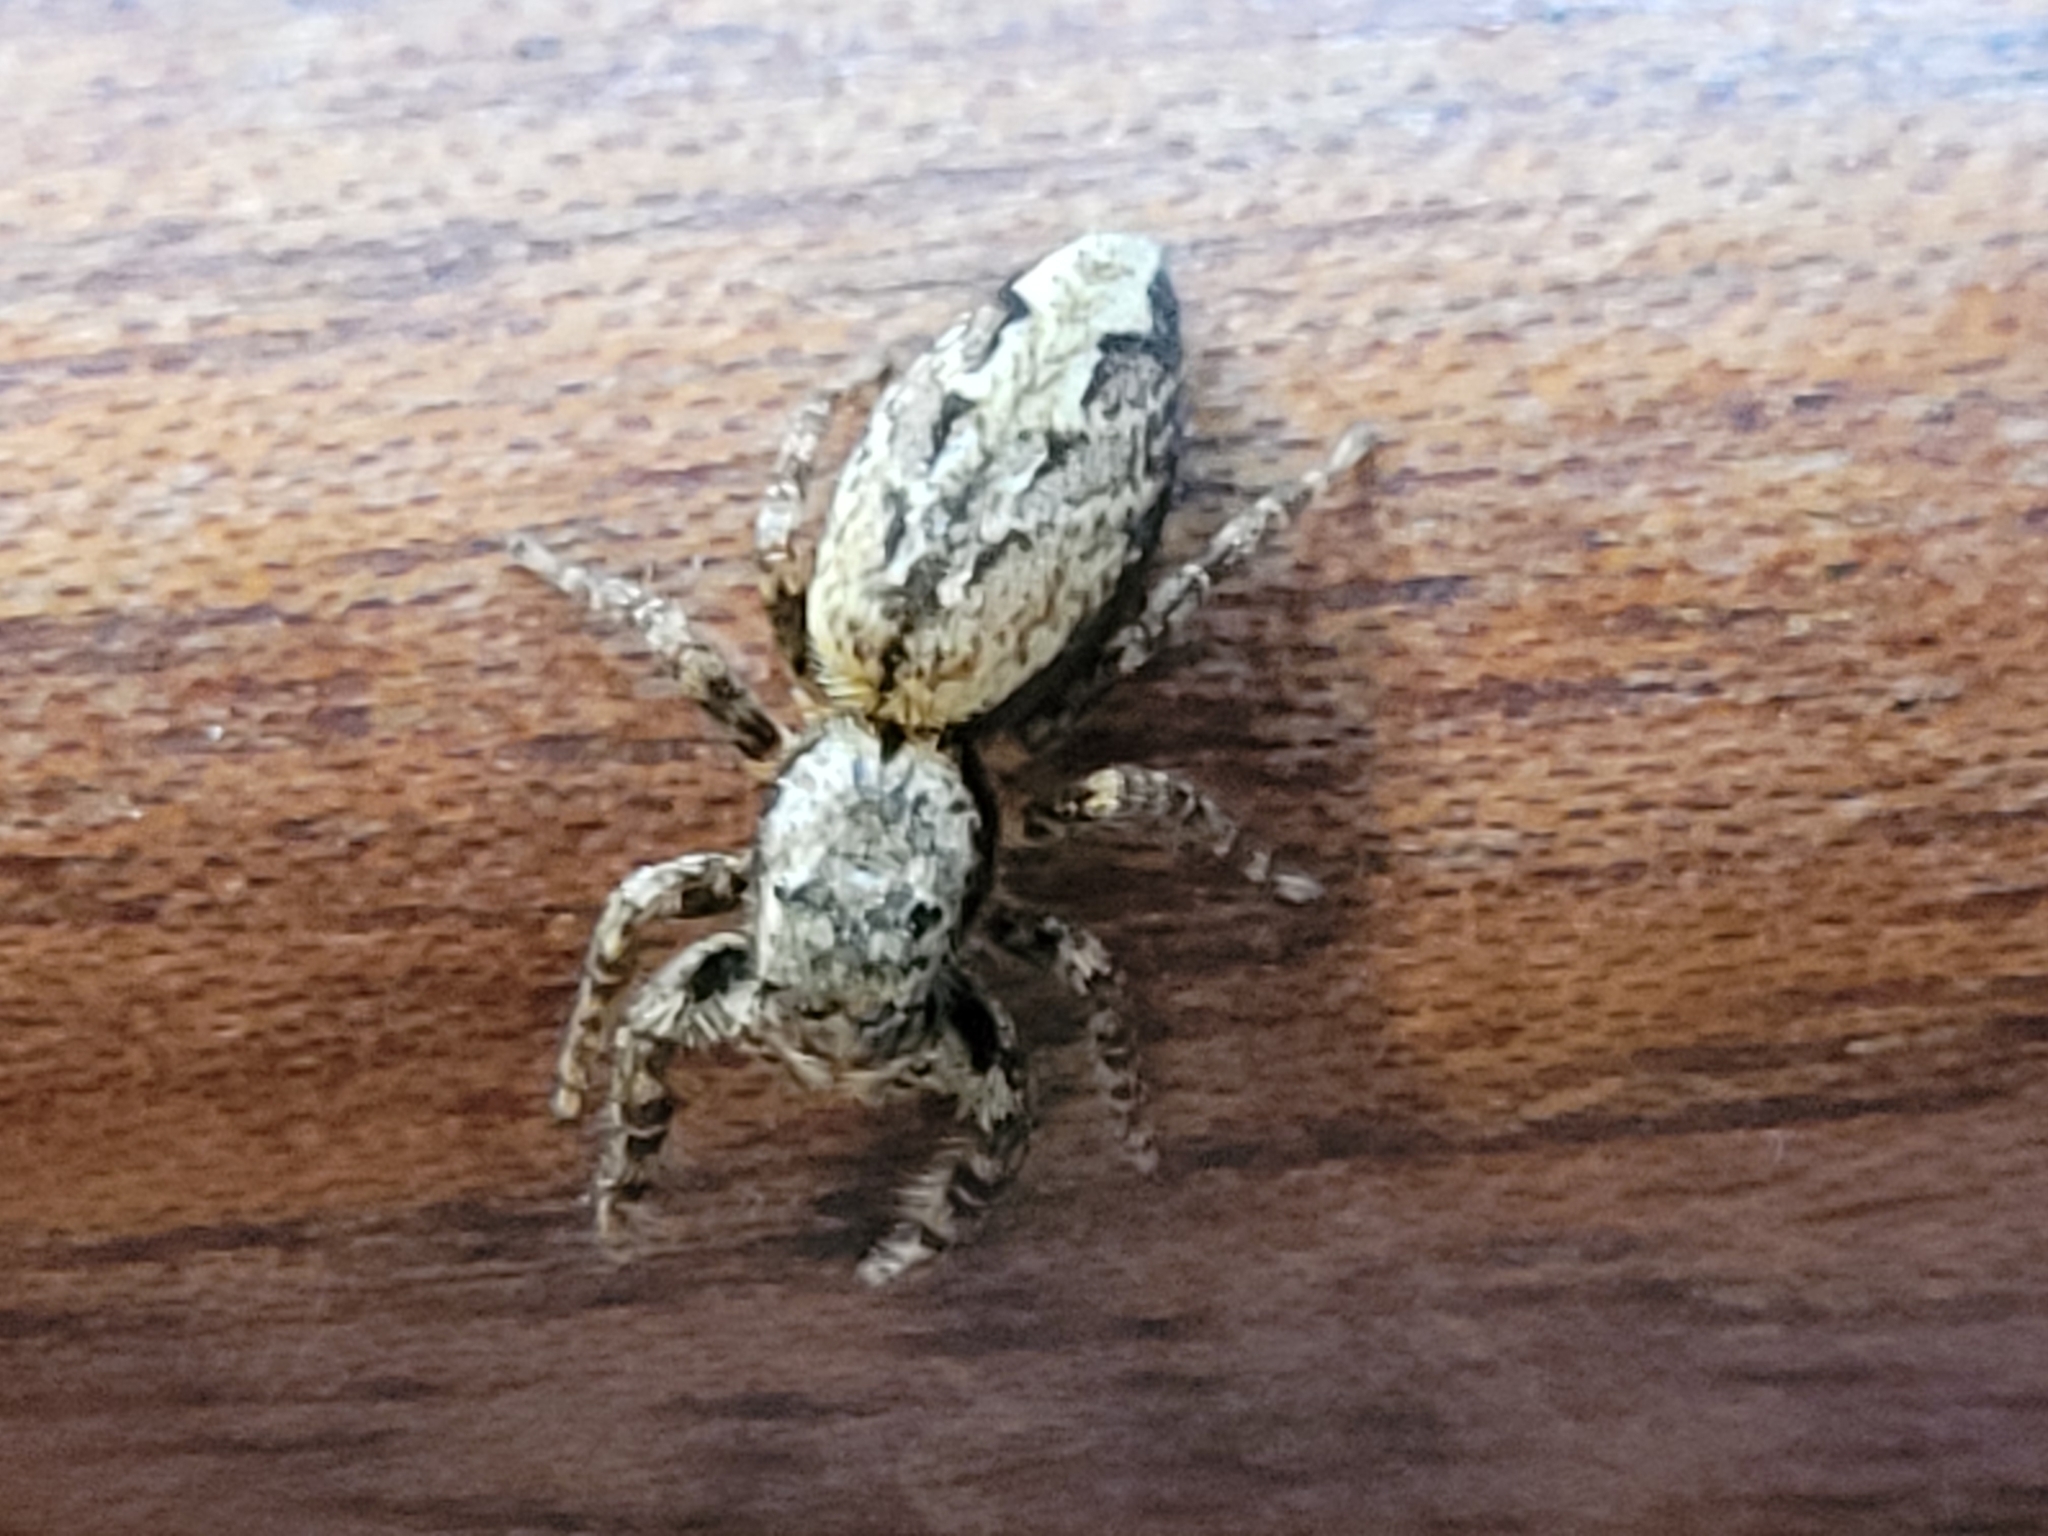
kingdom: Animalia
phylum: Arthropoda
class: Arachnida
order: Araneae
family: Salticidae
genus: Marpissa
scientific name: Marpissa muscosa
